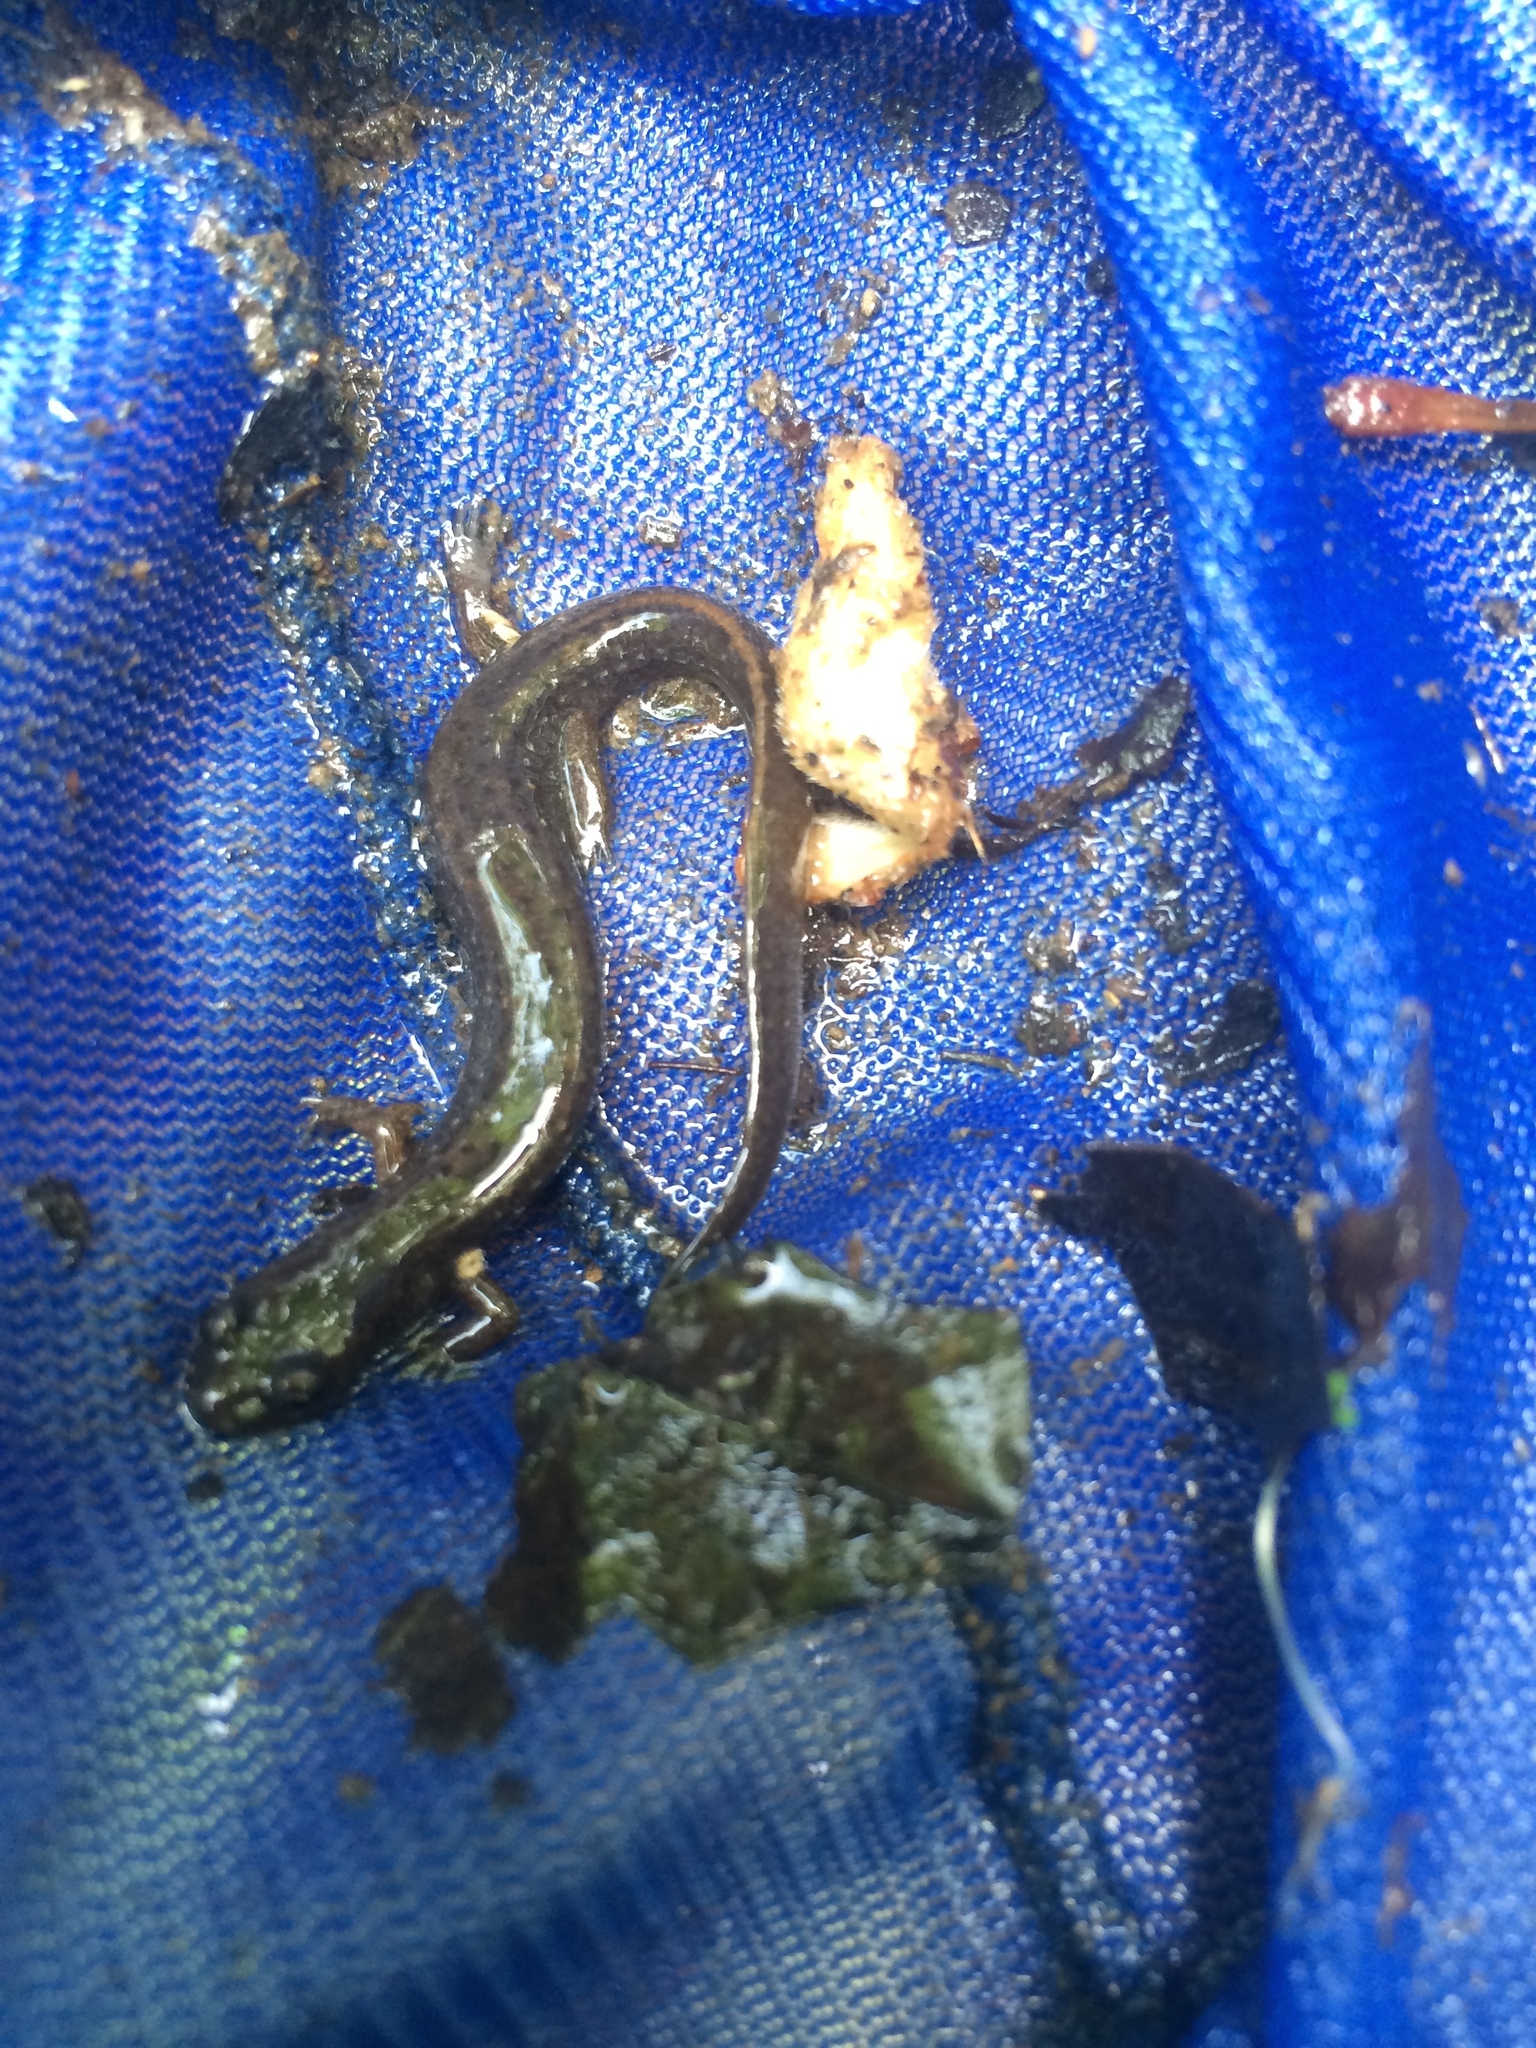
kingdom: Animalia
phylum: Chordata
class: Amphibia
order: Caudata
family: Plethodontidae
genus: Eurycea
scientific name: Eurycea tynerensis
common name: Oklahoma salamander
